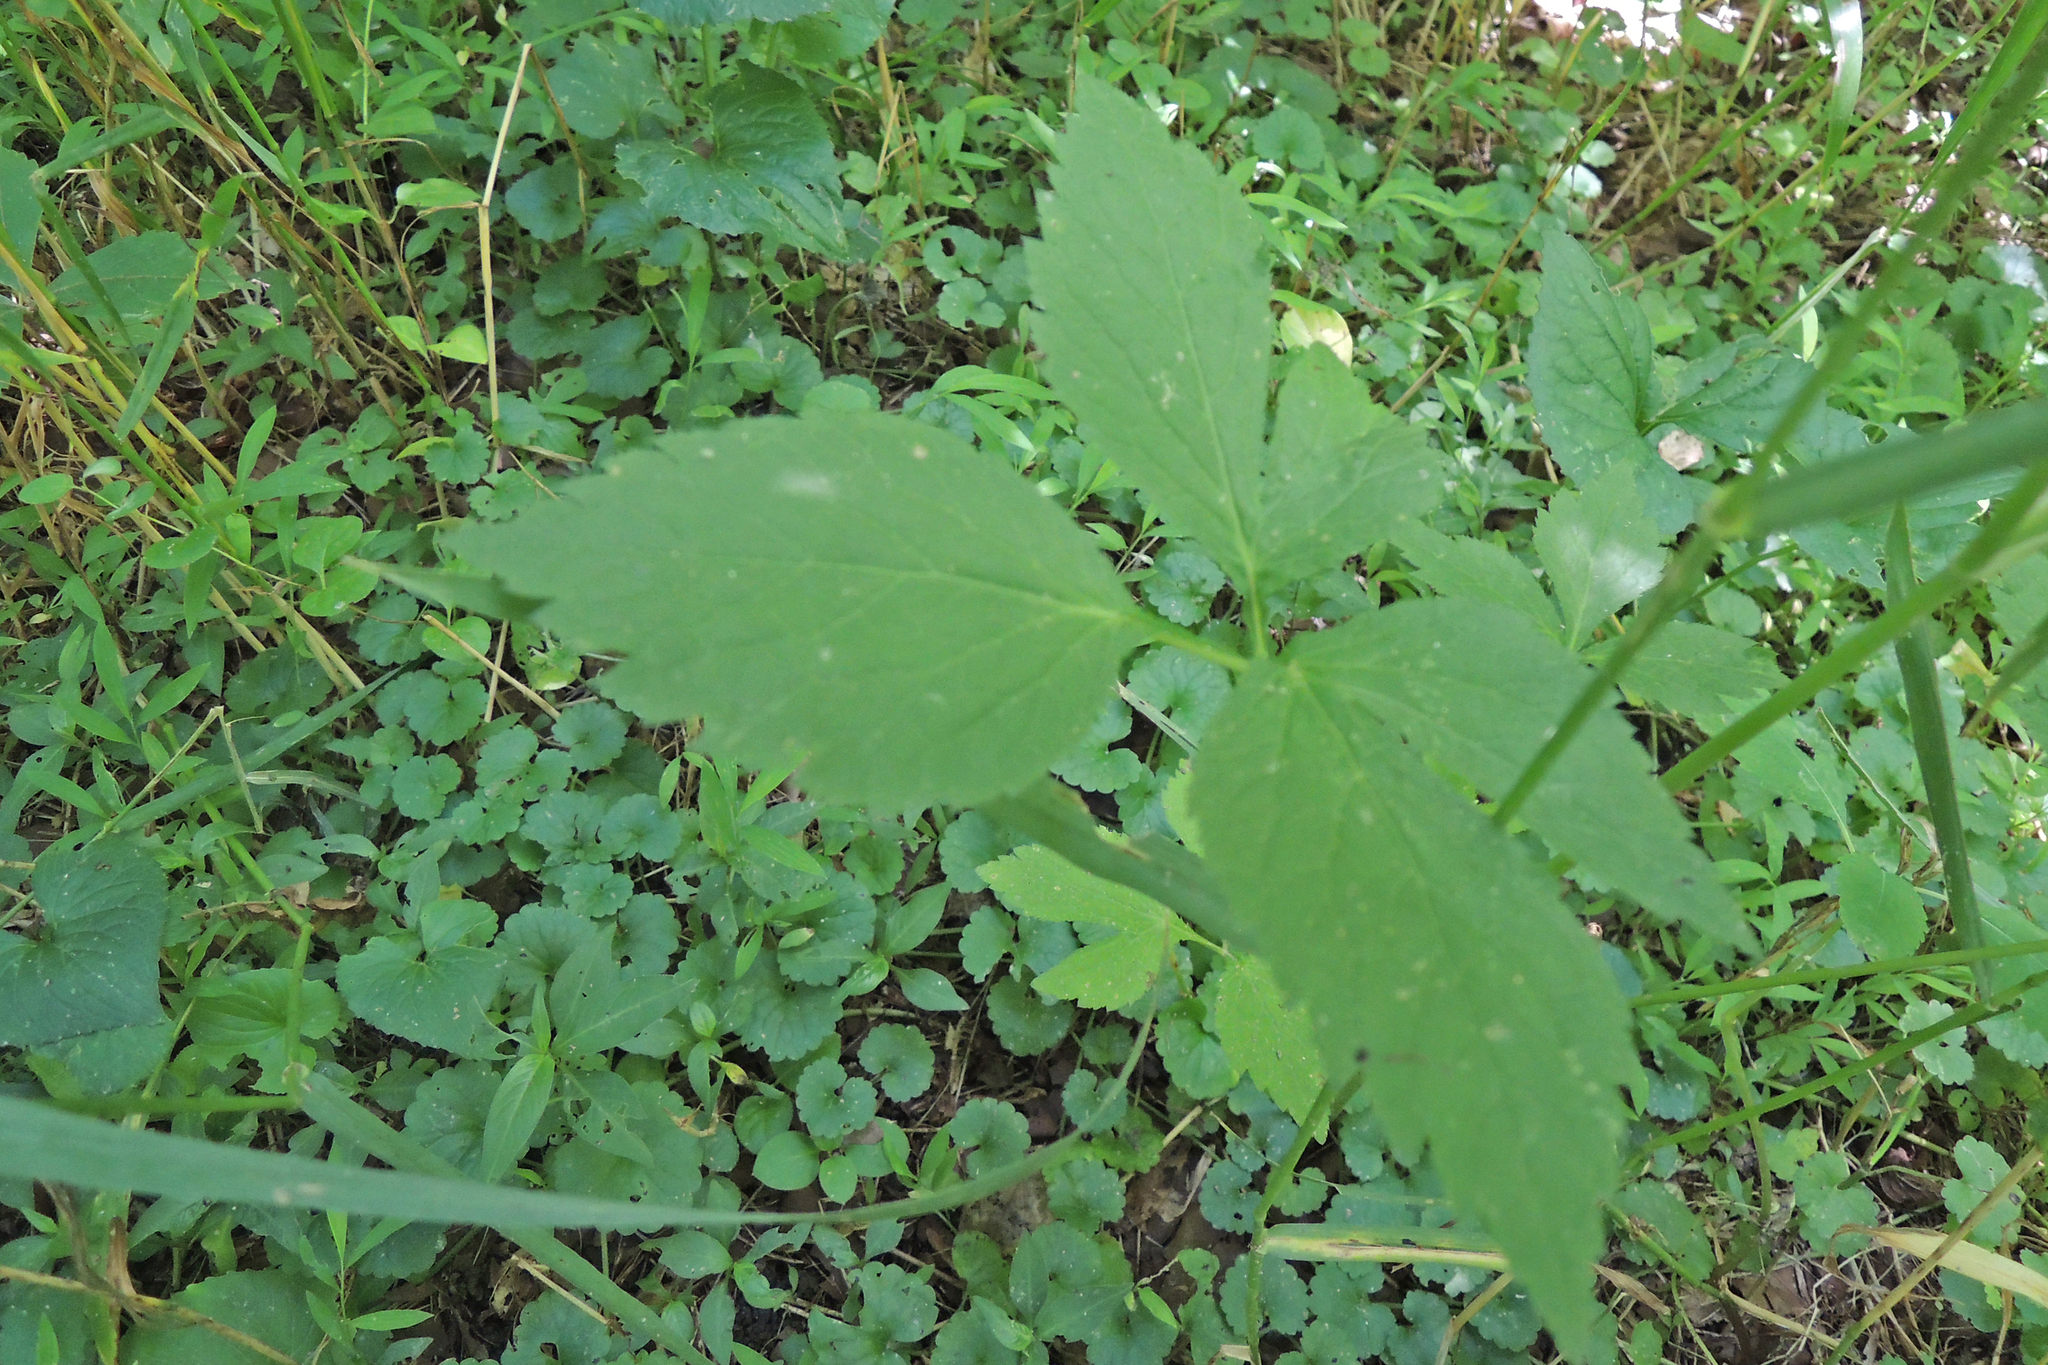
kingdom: Plantae
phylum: Tracheophyta
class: Magnoliopsida
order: Apiales
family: Apiaceae
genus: Cryptotaenia
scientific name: Cryptotaenia canadensis
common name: Honewort
